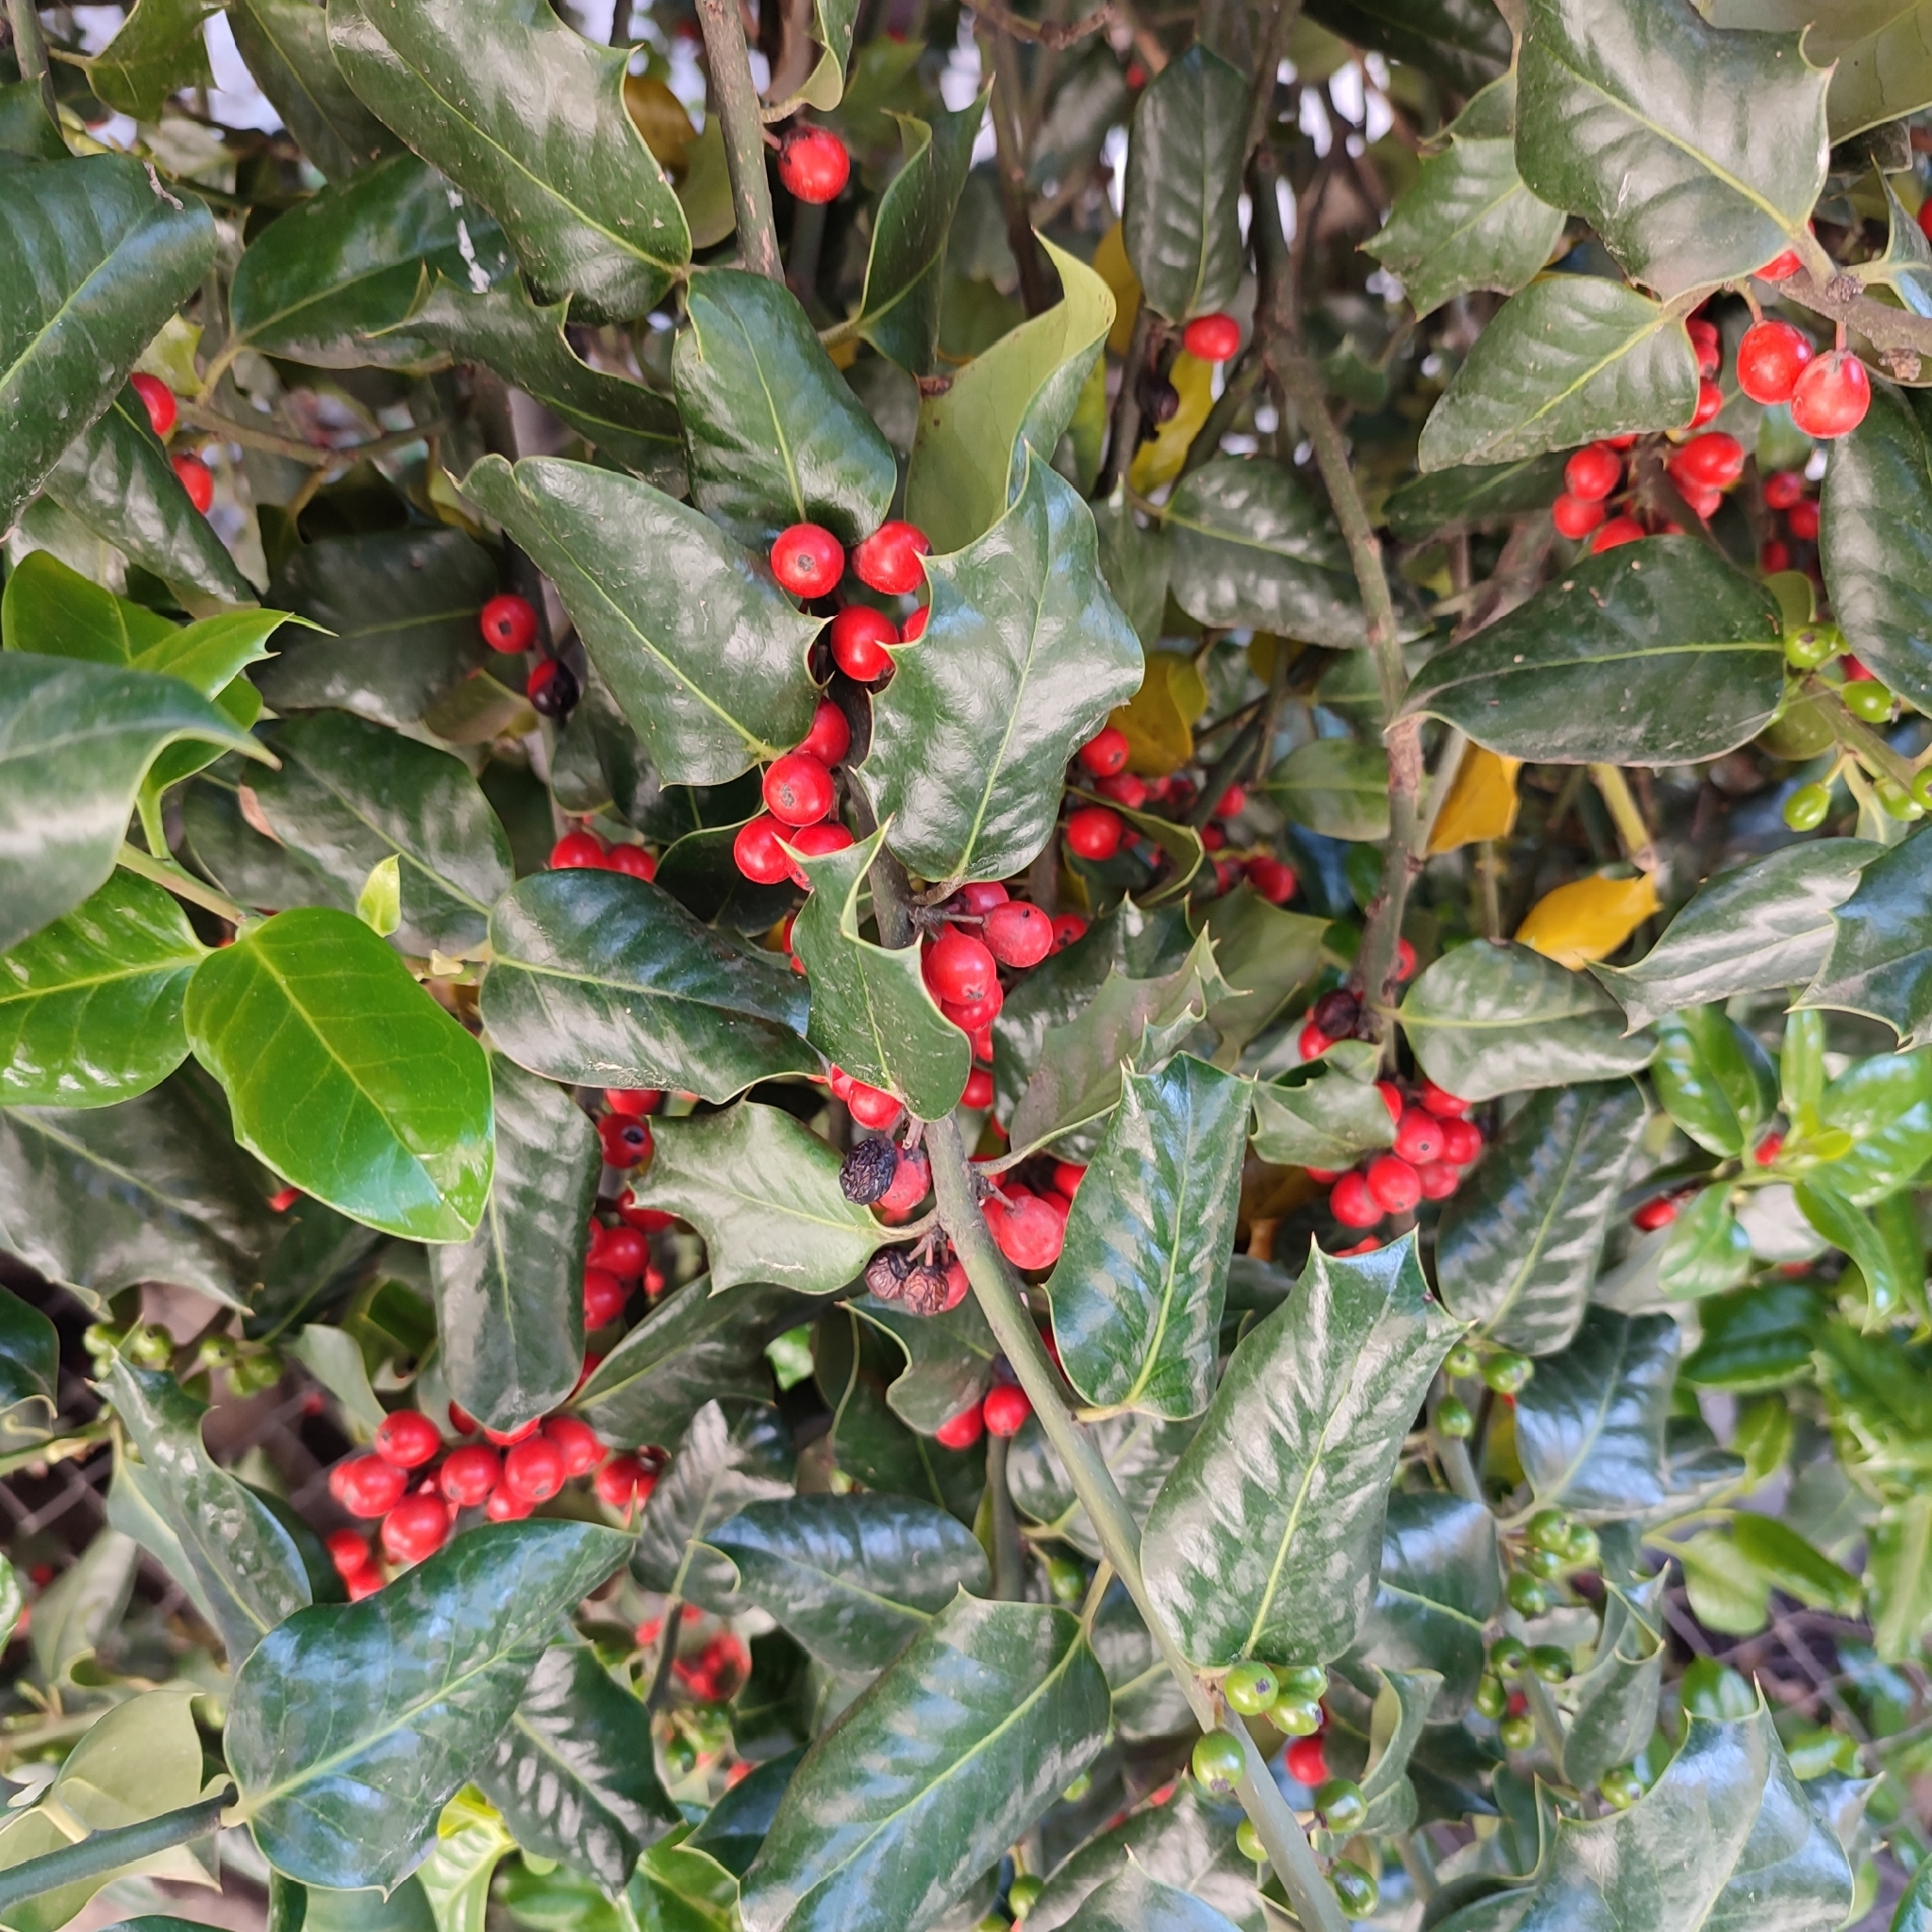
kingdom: Plantae
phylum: Tracheophyta
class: Magnoliopsida
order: Aquifoliales
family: Aquifoliaceae
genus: Ilex
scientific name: Ilex aquifolium
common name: English holly
